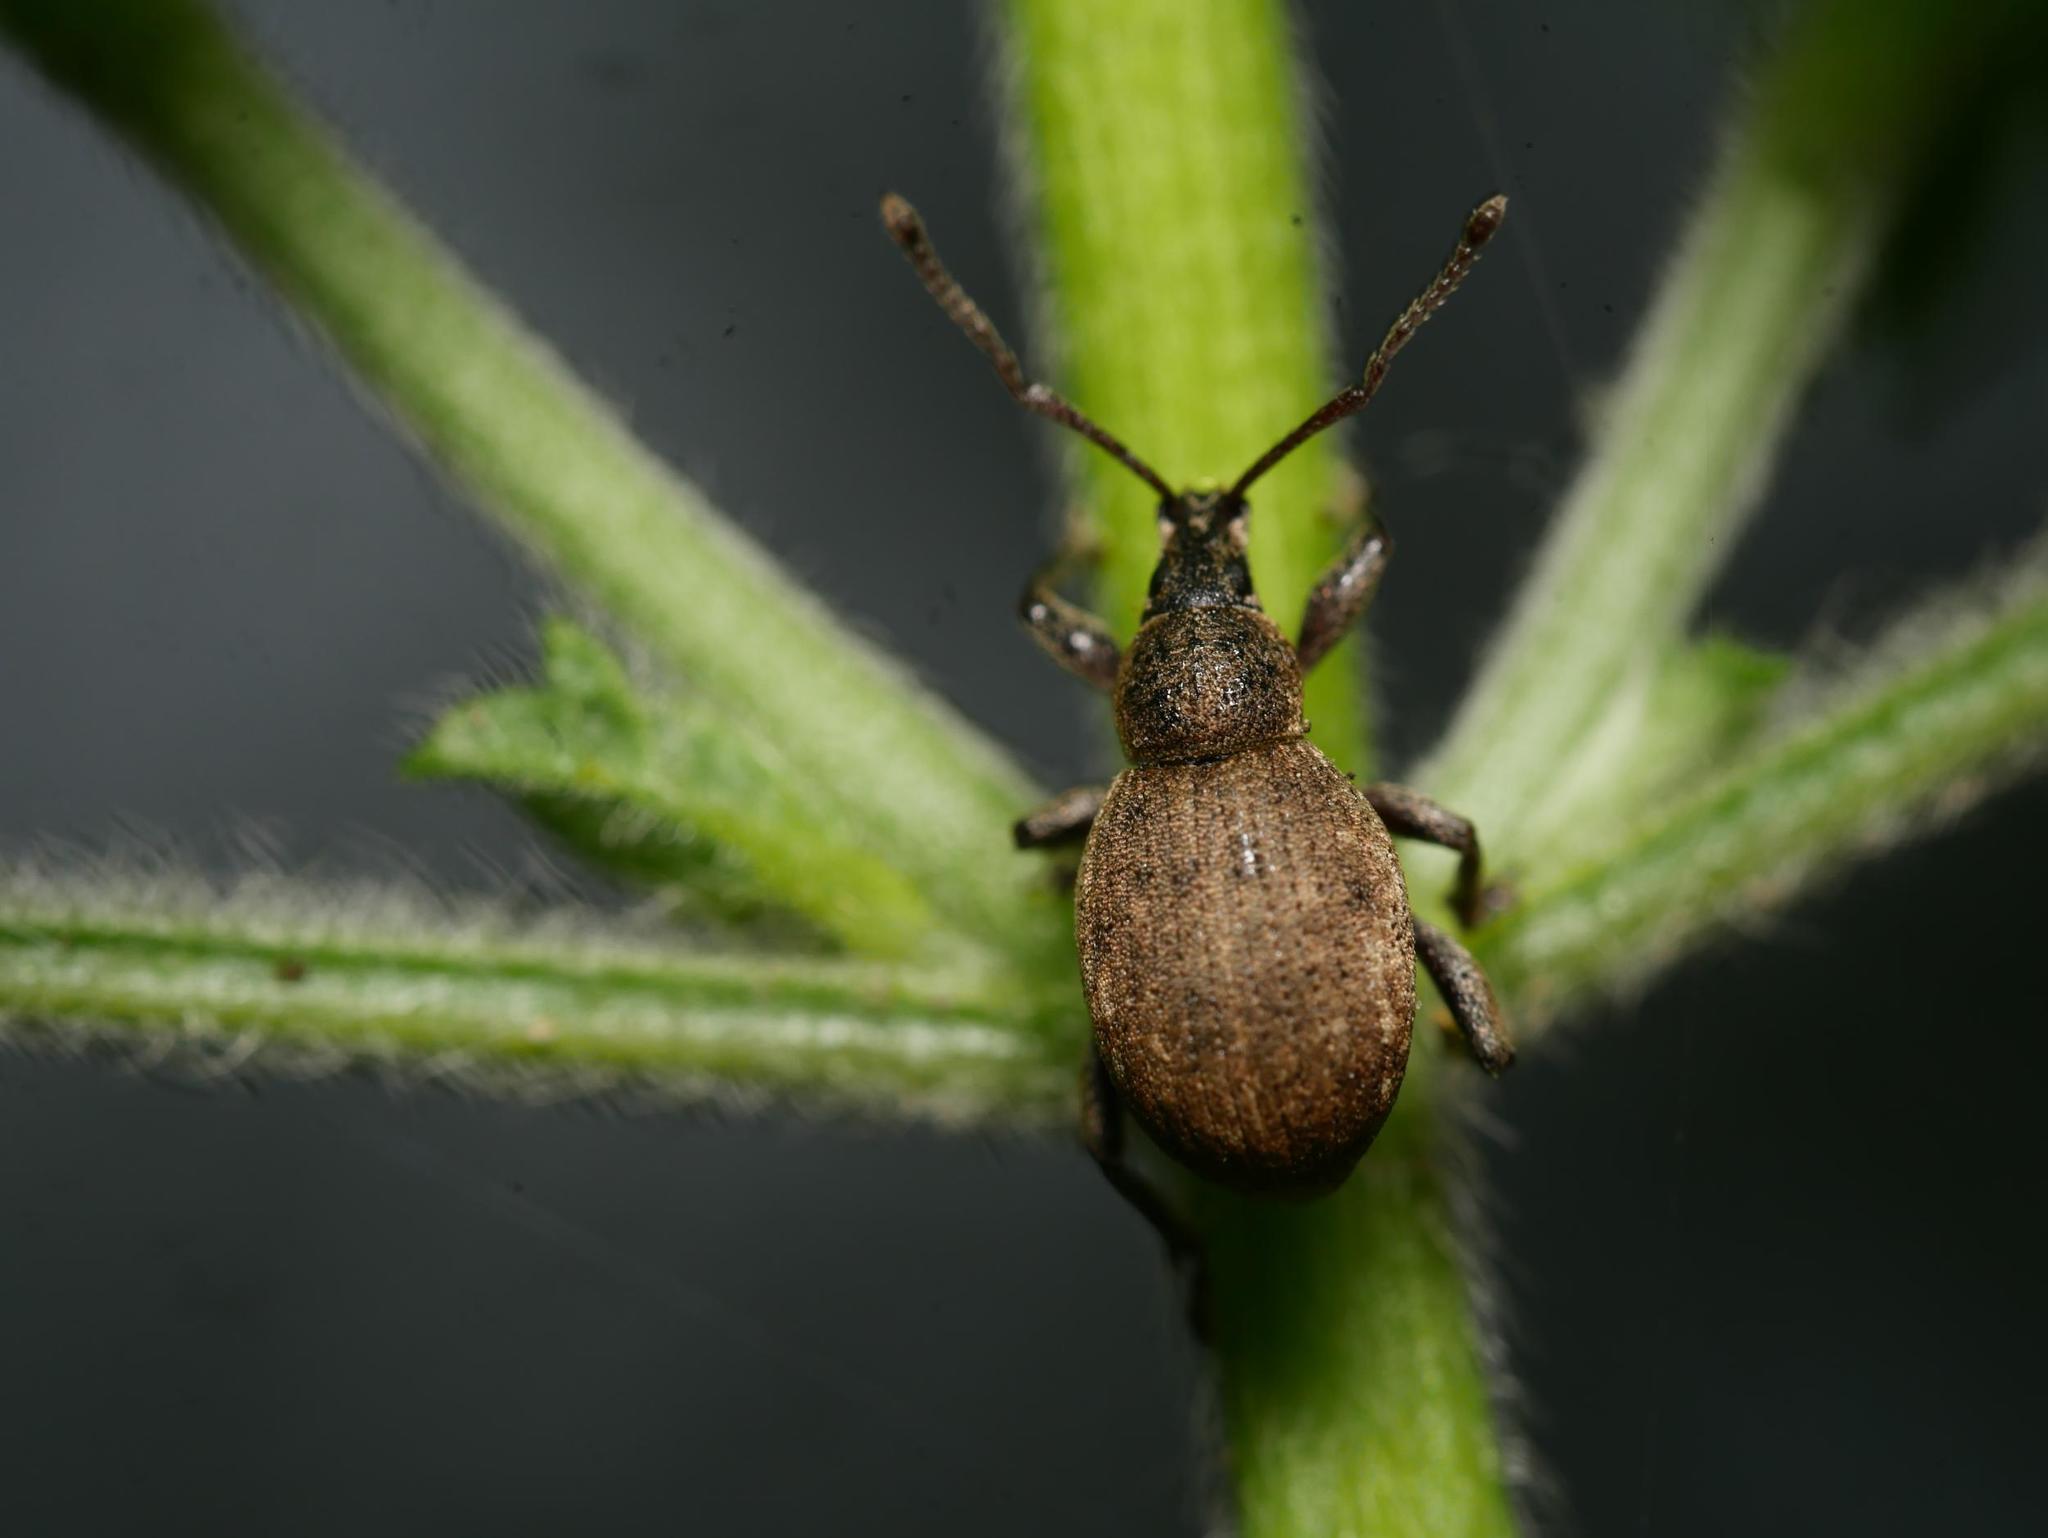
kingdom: Animalia
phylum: Arthropoda
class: Insecta
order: Coleoptera
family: Curculionidae
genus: Peritelus
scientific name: Peritelus sphaeroides
